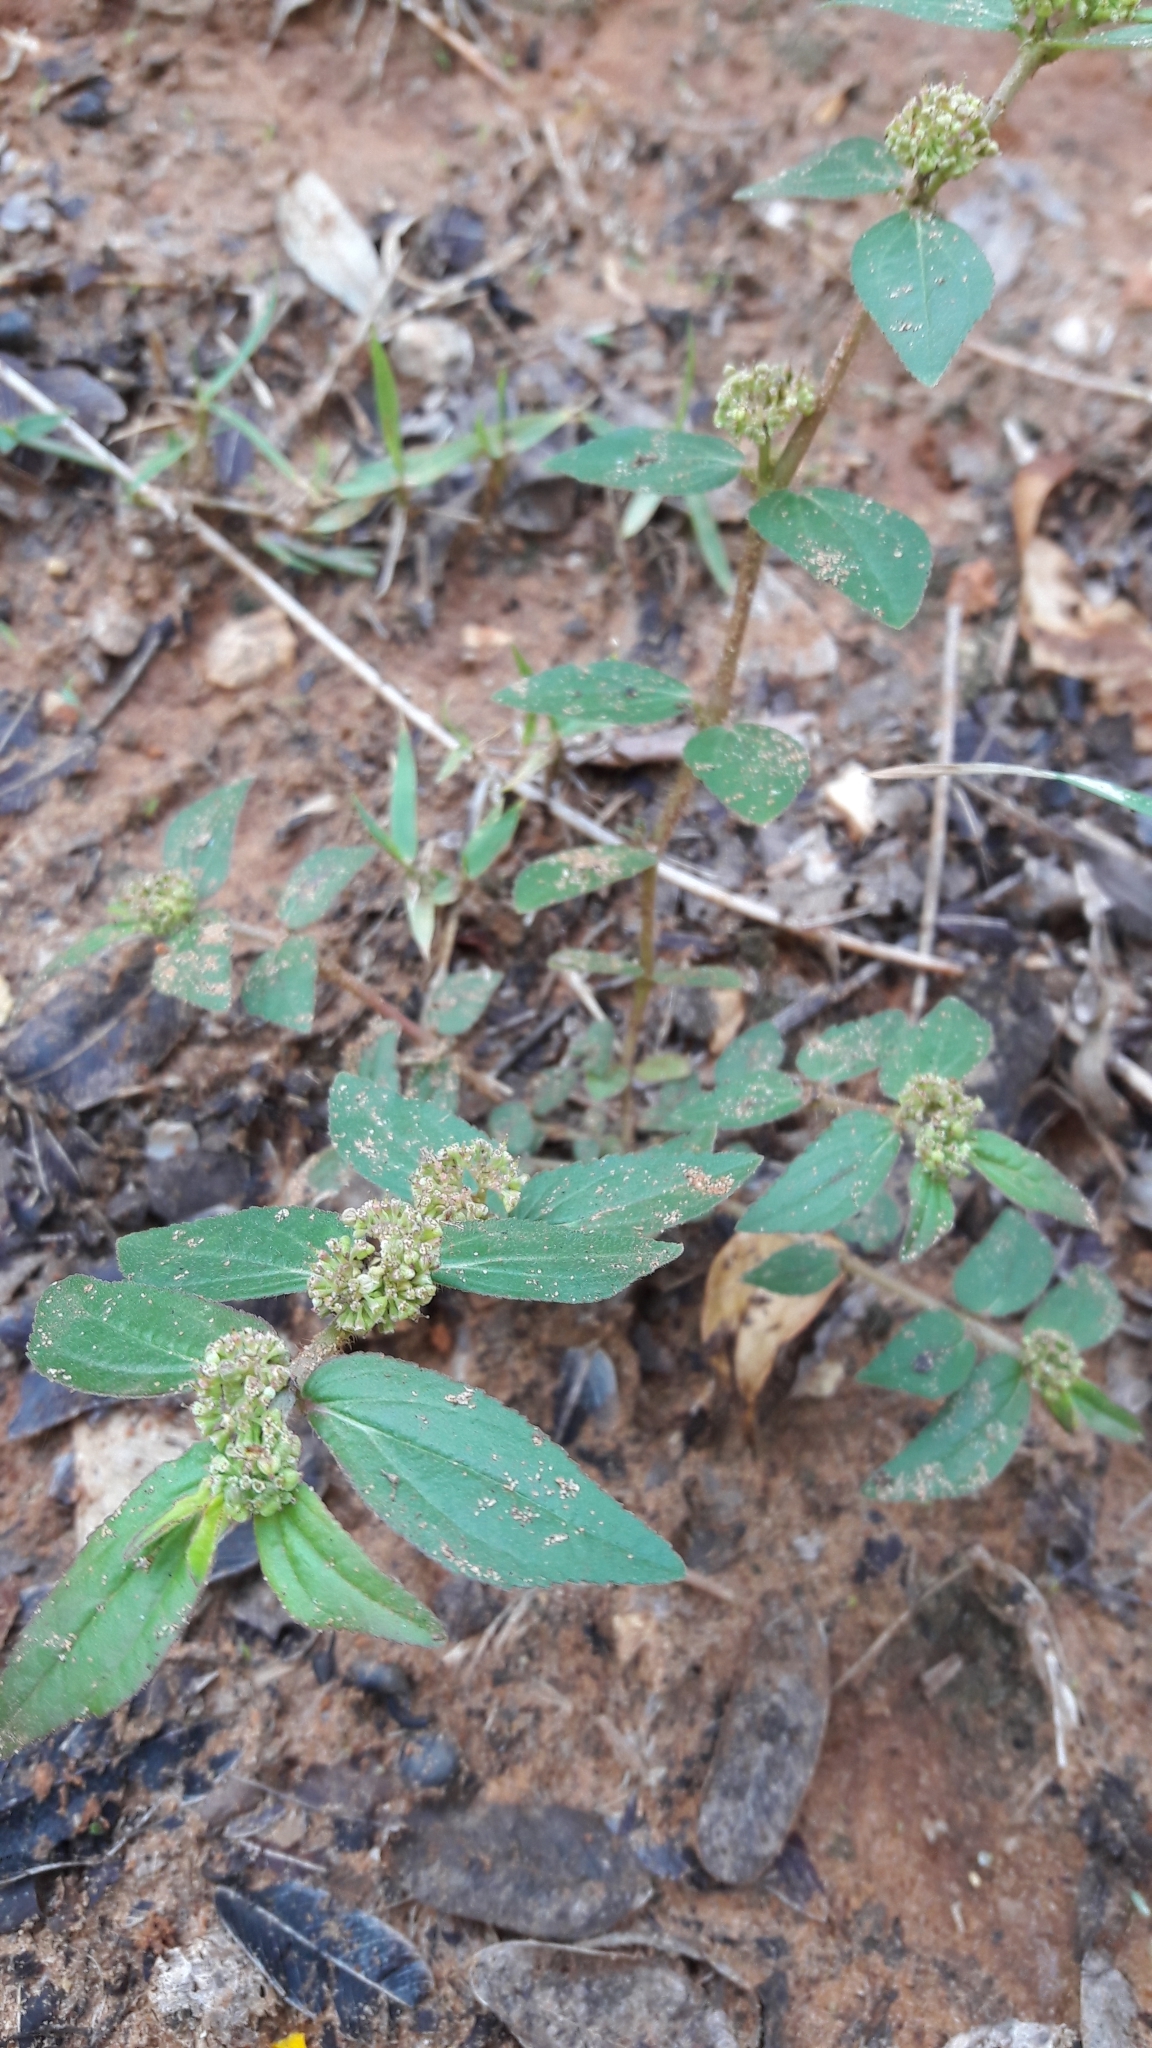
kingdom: Plantae
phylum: Tracheophyta
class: Magnoliopsida
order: Malpighiales
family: Euphorbiaceae
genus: Euphorbia
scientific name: Euphorbia hirta
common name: Pillpod sandmat
